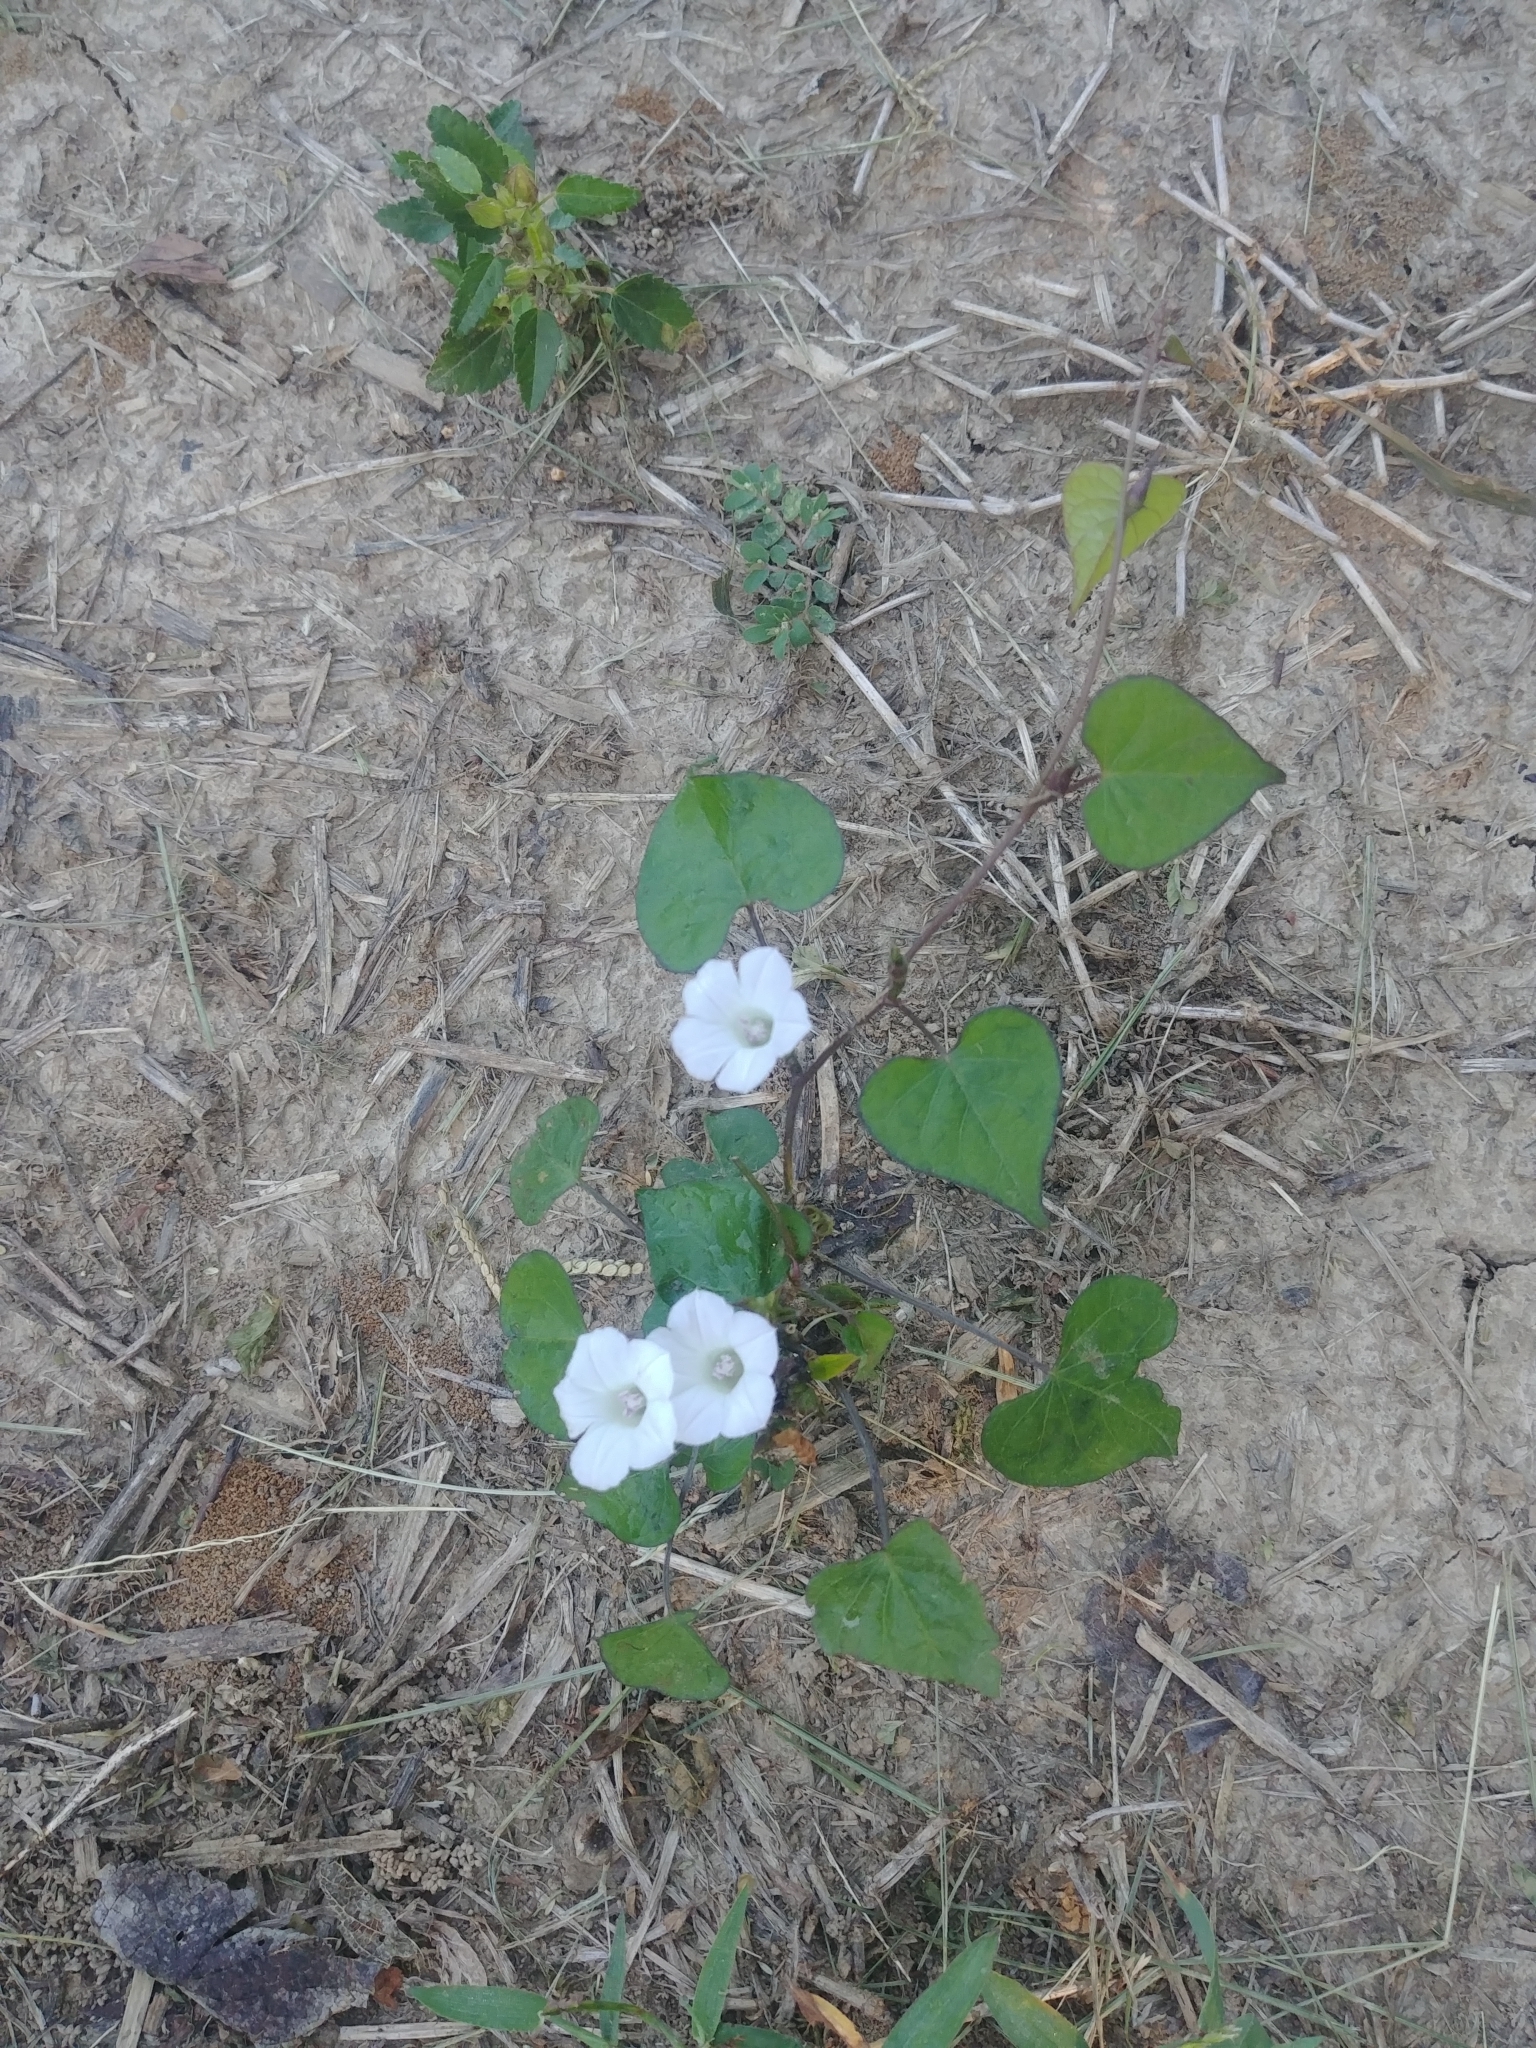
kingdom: Plantae
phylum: Tracheophyta
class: Magnoliopsida
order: Solanales
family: Convolvulaceae
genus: Ipomoea
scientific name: Ipomoea lacunosa
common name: White morning-glory
